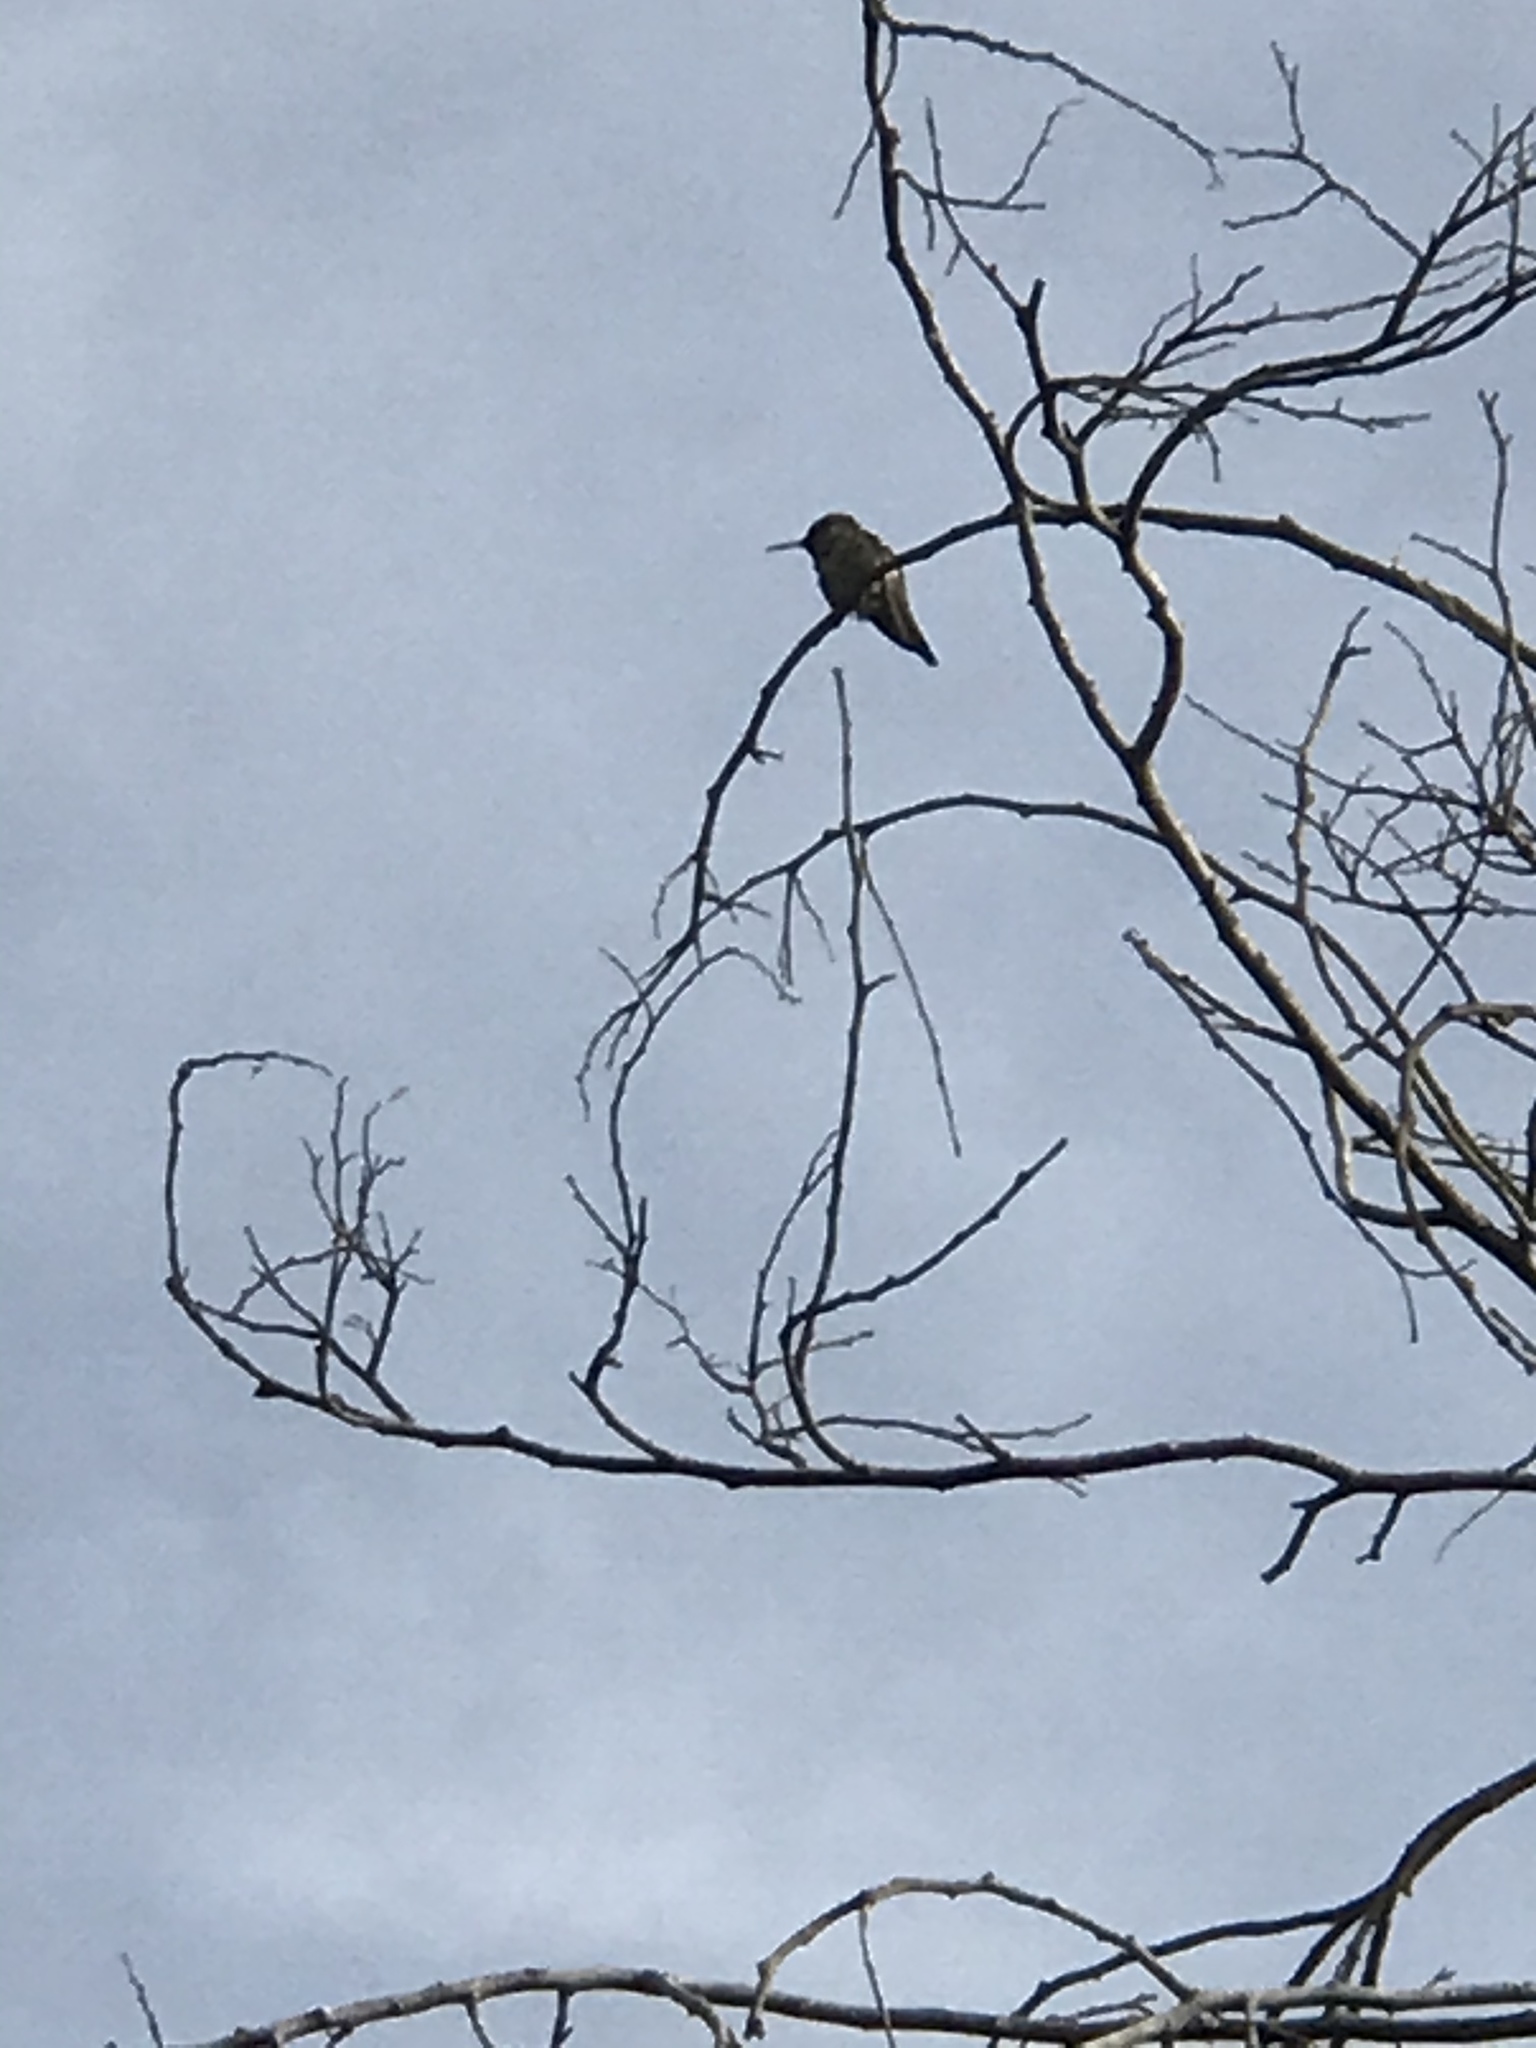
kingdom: Animalia
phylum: Chordata
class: Aves
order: Apodiformes
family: Trochilidae
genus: Calypte
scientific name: Calypte anna
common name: Anna's hummingbird
